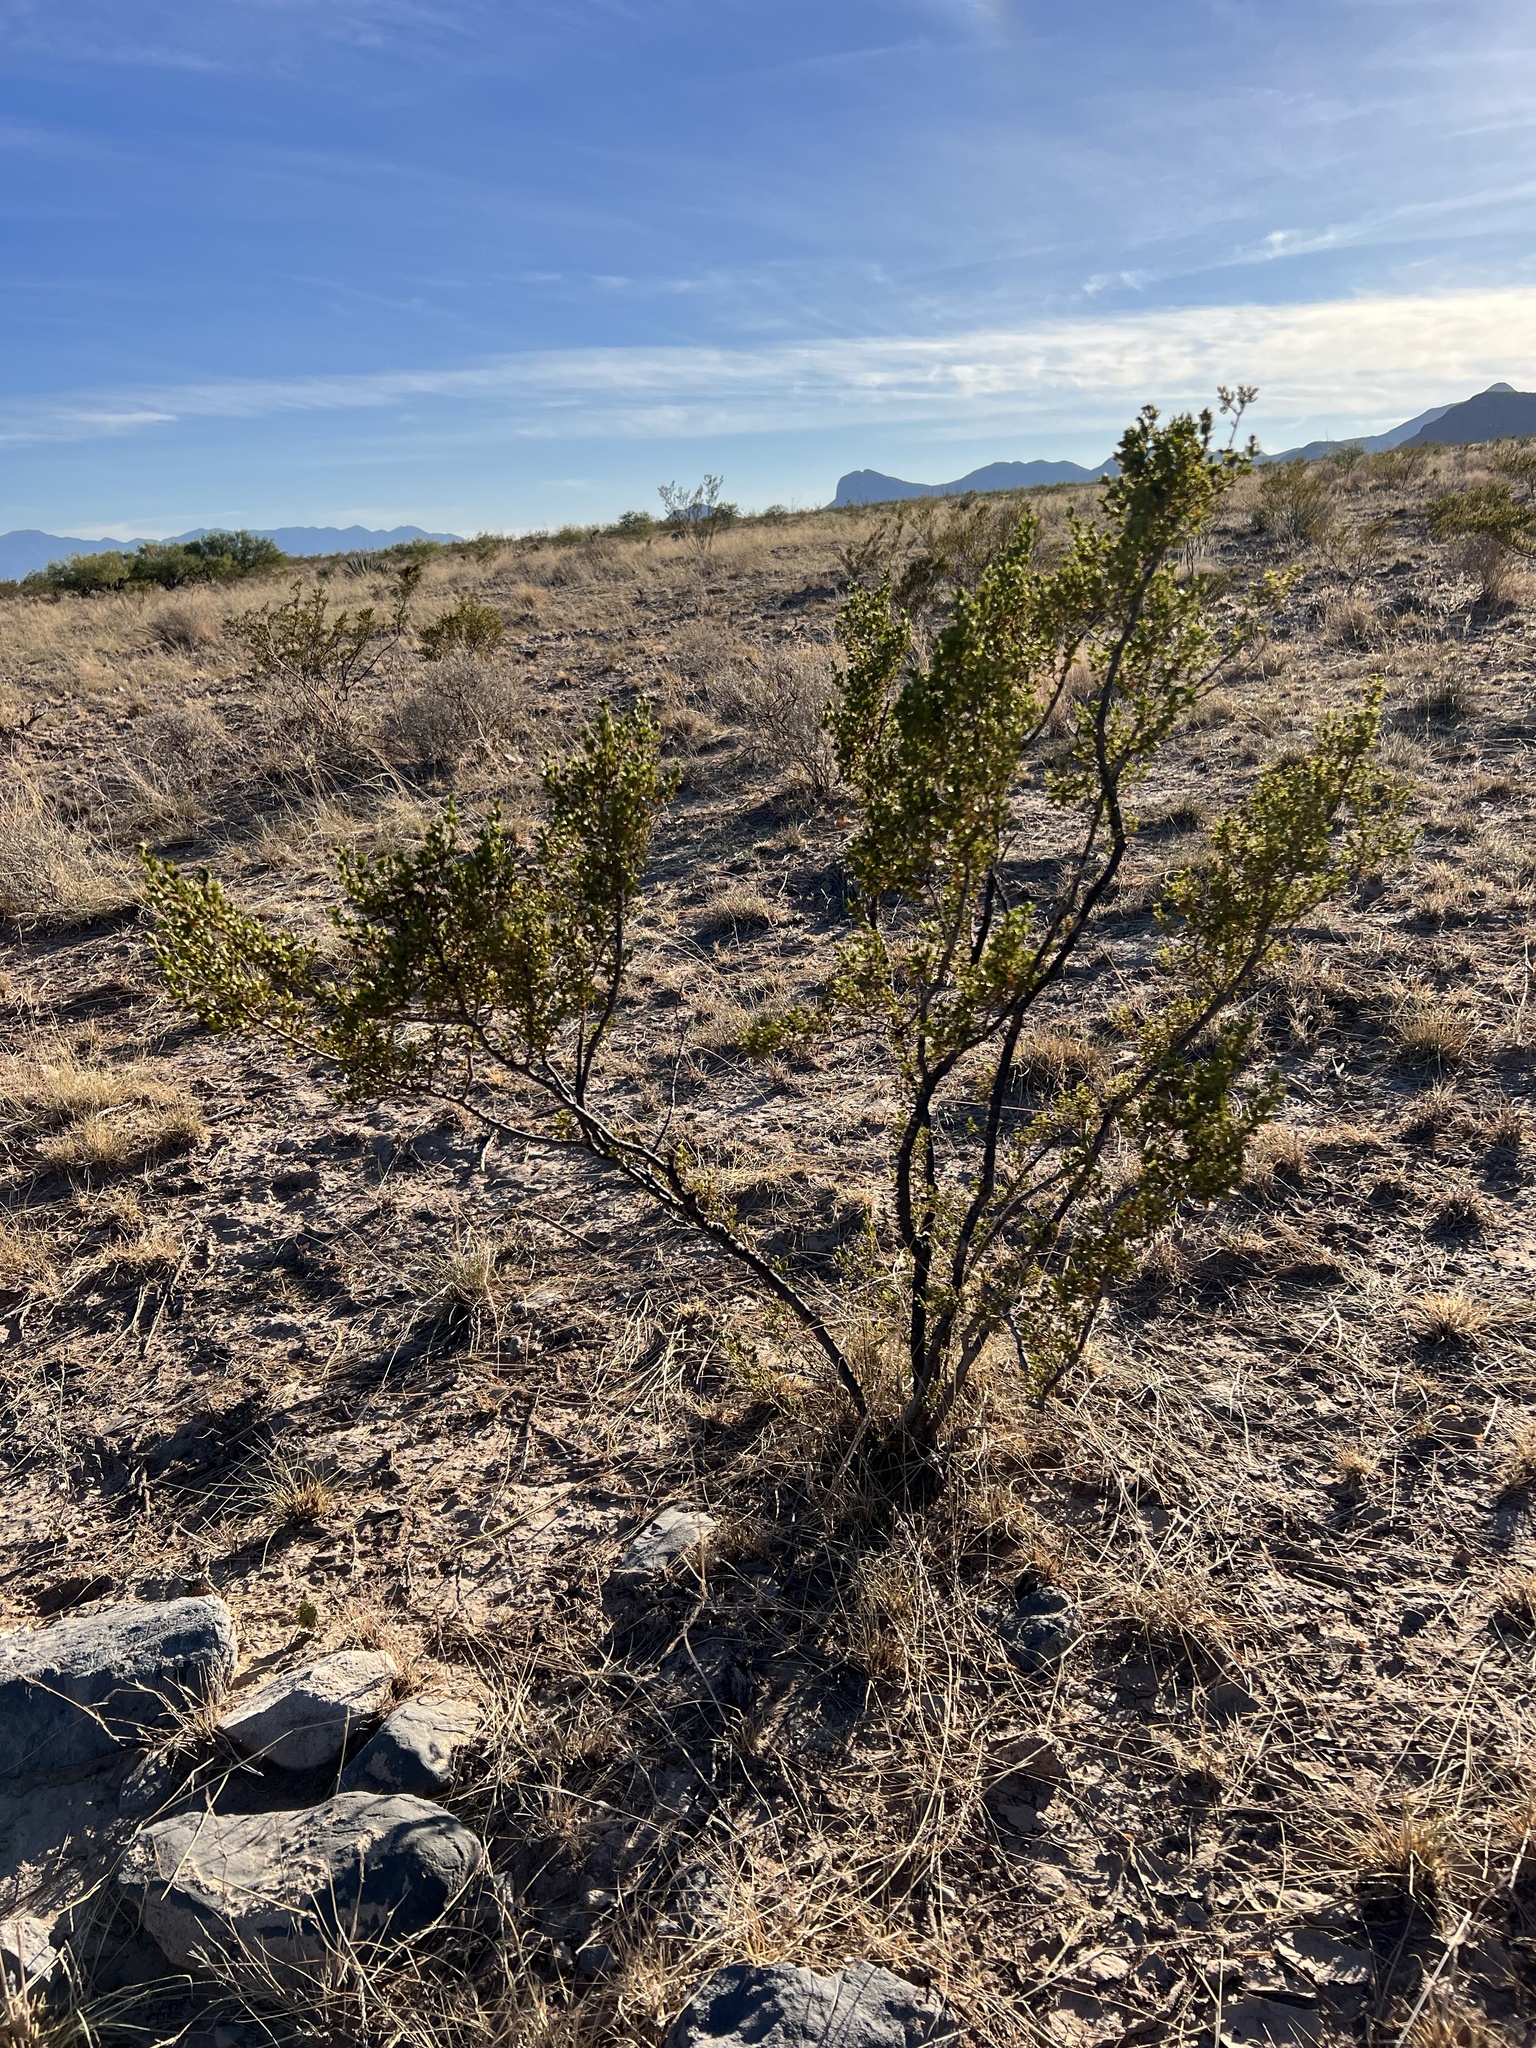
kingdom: Plantae
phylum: Tracheophyta
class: Magnoliopsida
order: Zygophyllales
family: Zygophyllaceae
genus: Larrea
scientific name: Larrea tridentata
